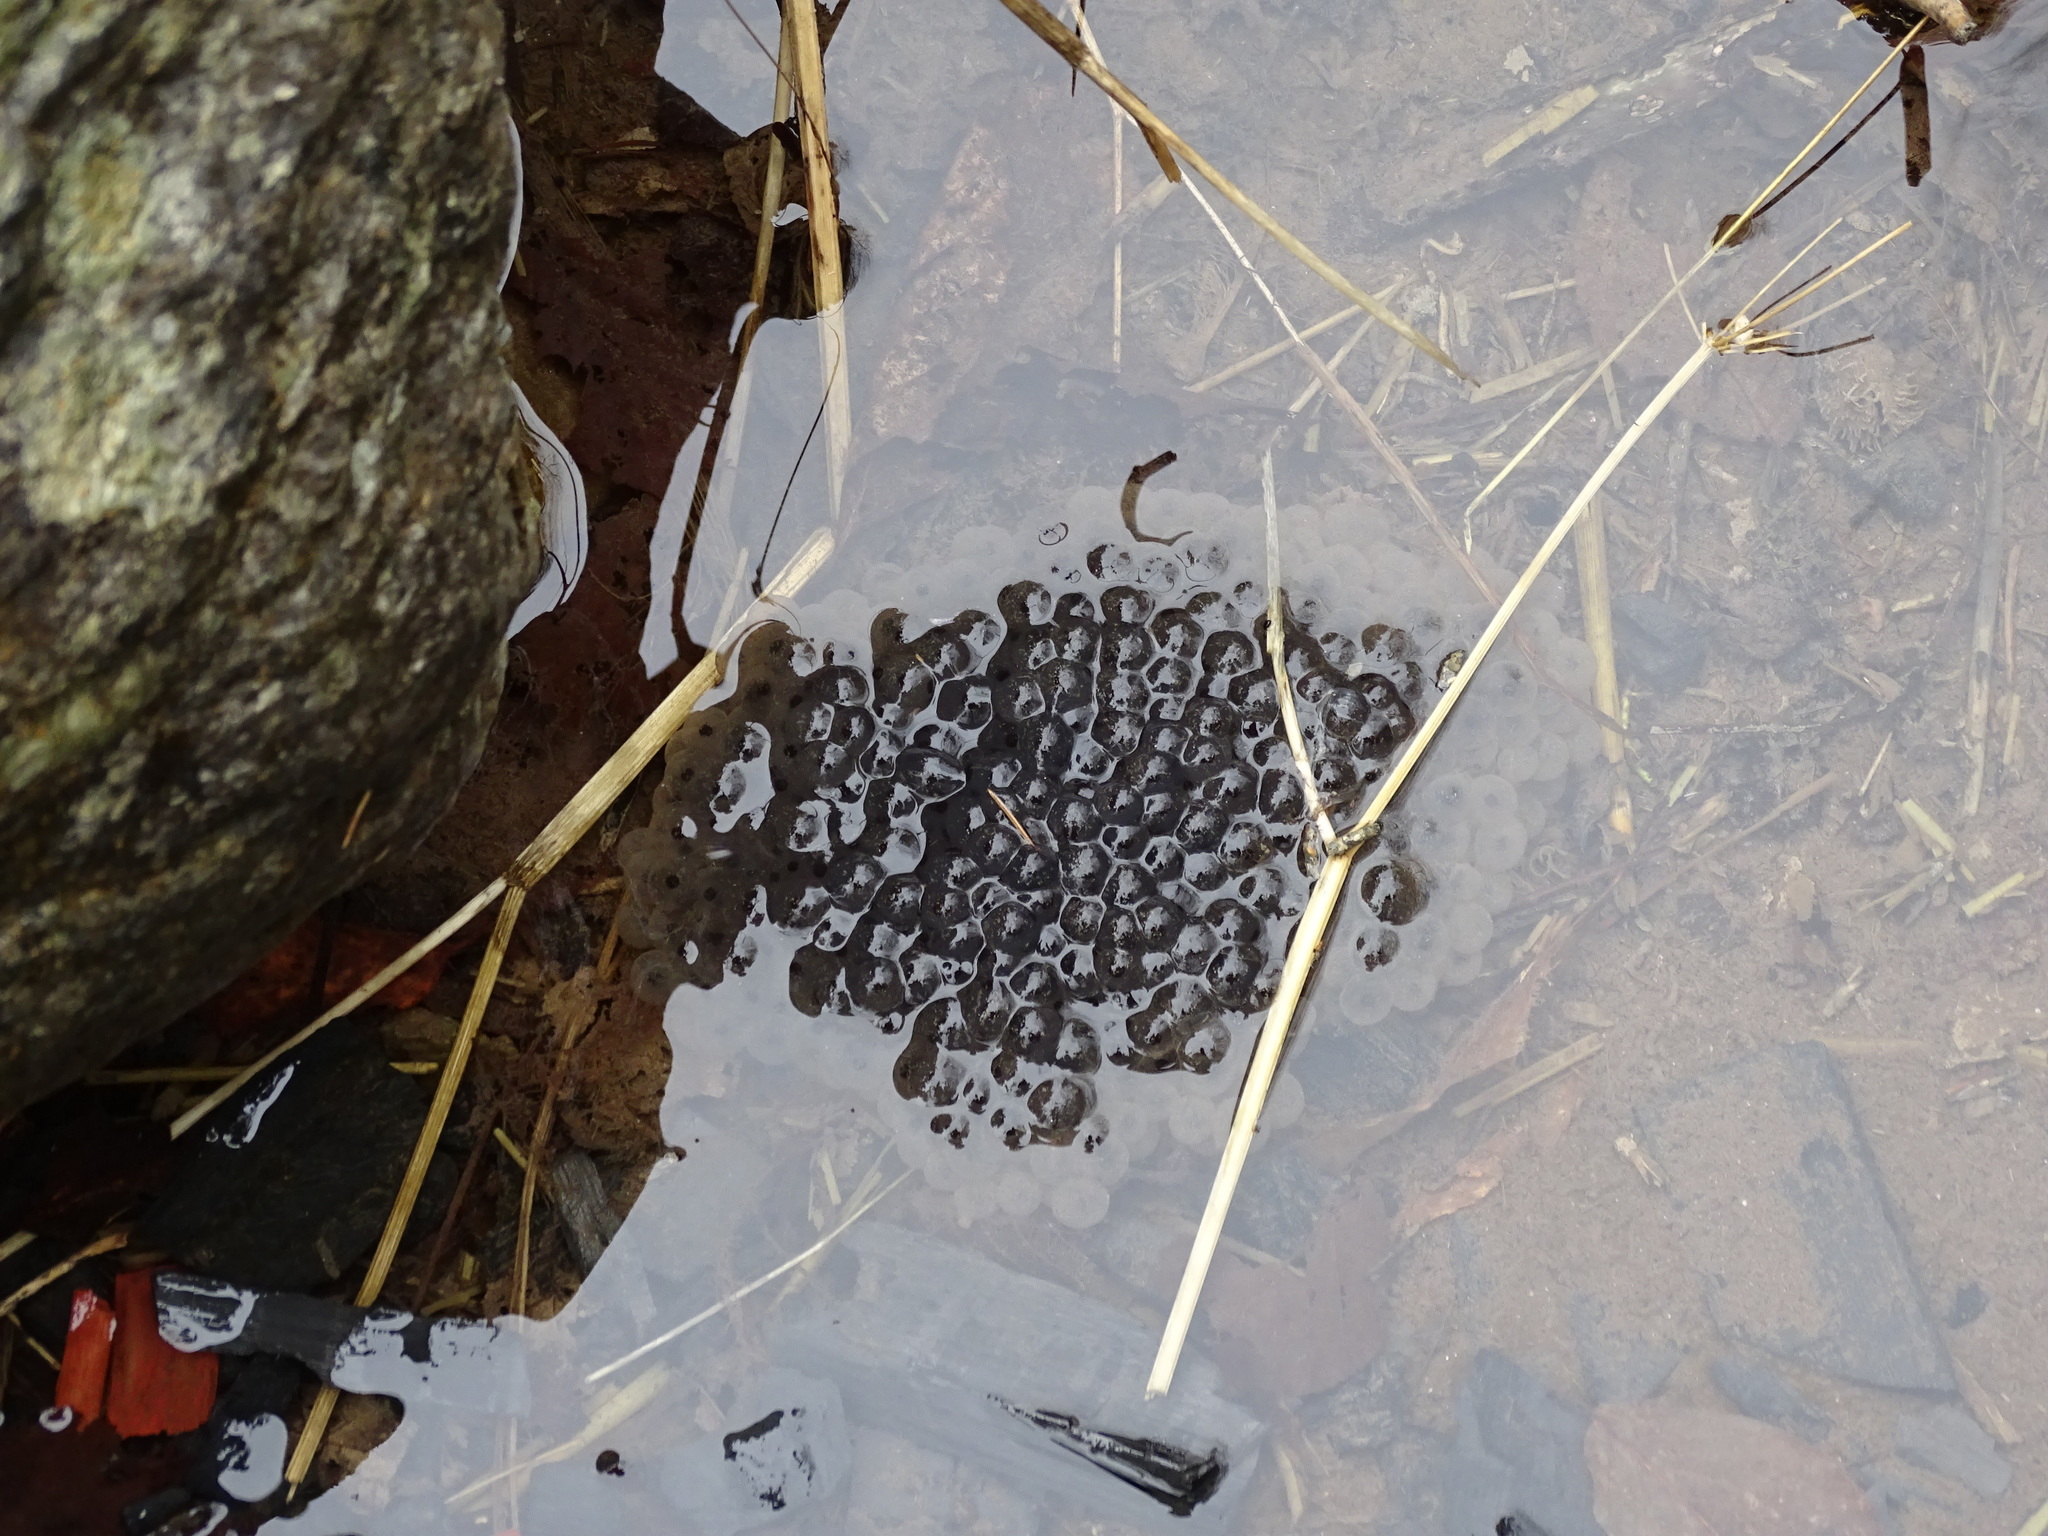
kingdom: Animalia
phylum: Chordata
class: Amphibia
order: Anura
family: Ranidae
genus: Rana
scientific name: Rana temporaria
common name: Common frog
